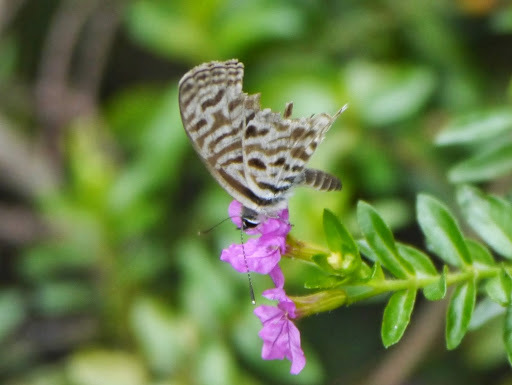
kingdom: Animalia
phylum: Arthropoda
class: Insecta
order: Lepidoptera
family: Lycaenidae
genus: Leptotes
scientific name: Leptotes
